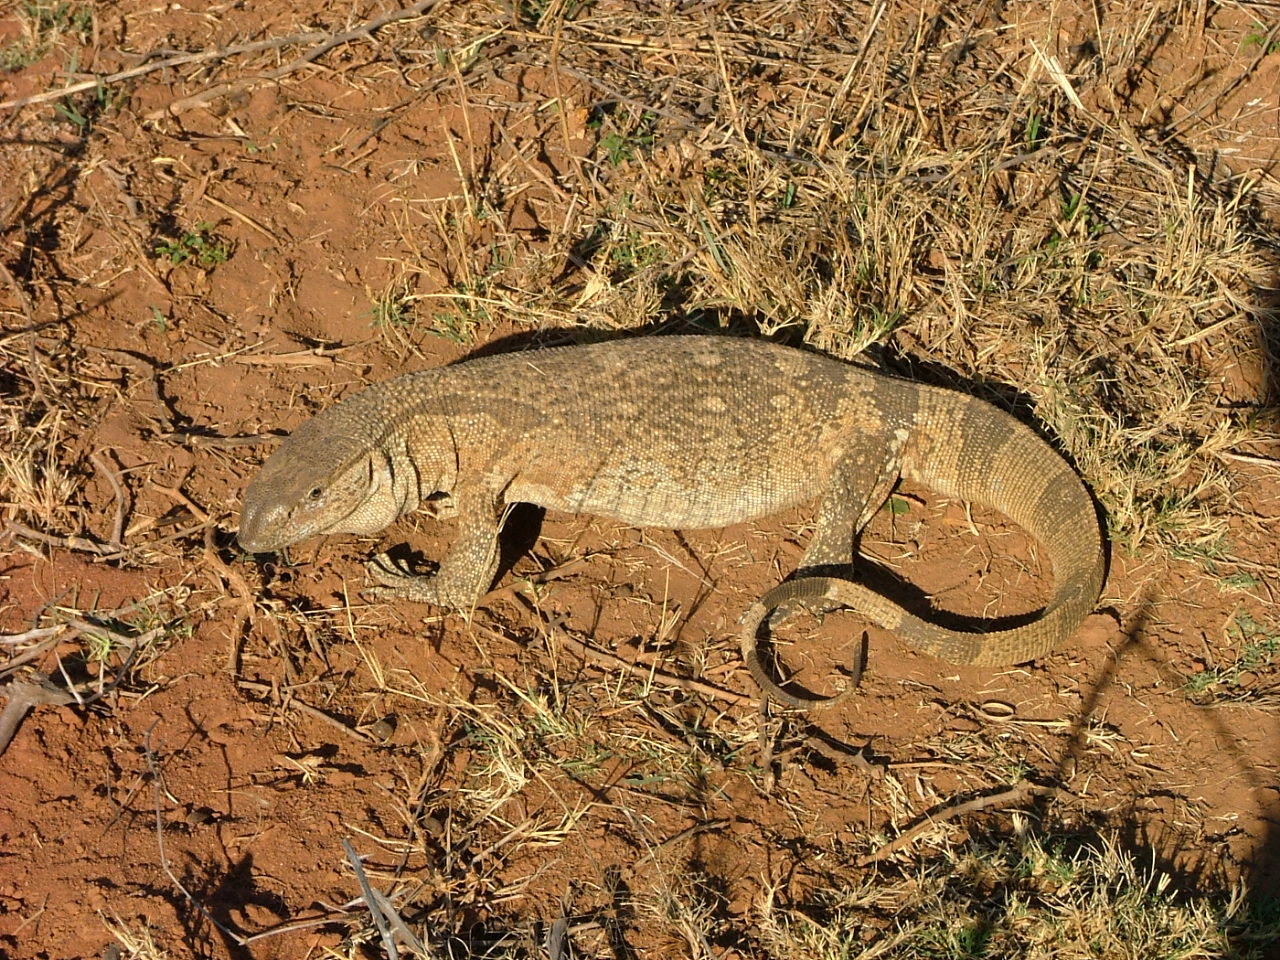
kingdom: Animalia
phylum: Chordata
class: Squamata
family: Varanidae
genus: Varanus
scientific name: Varanus albigularis
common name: White-throated monitor
